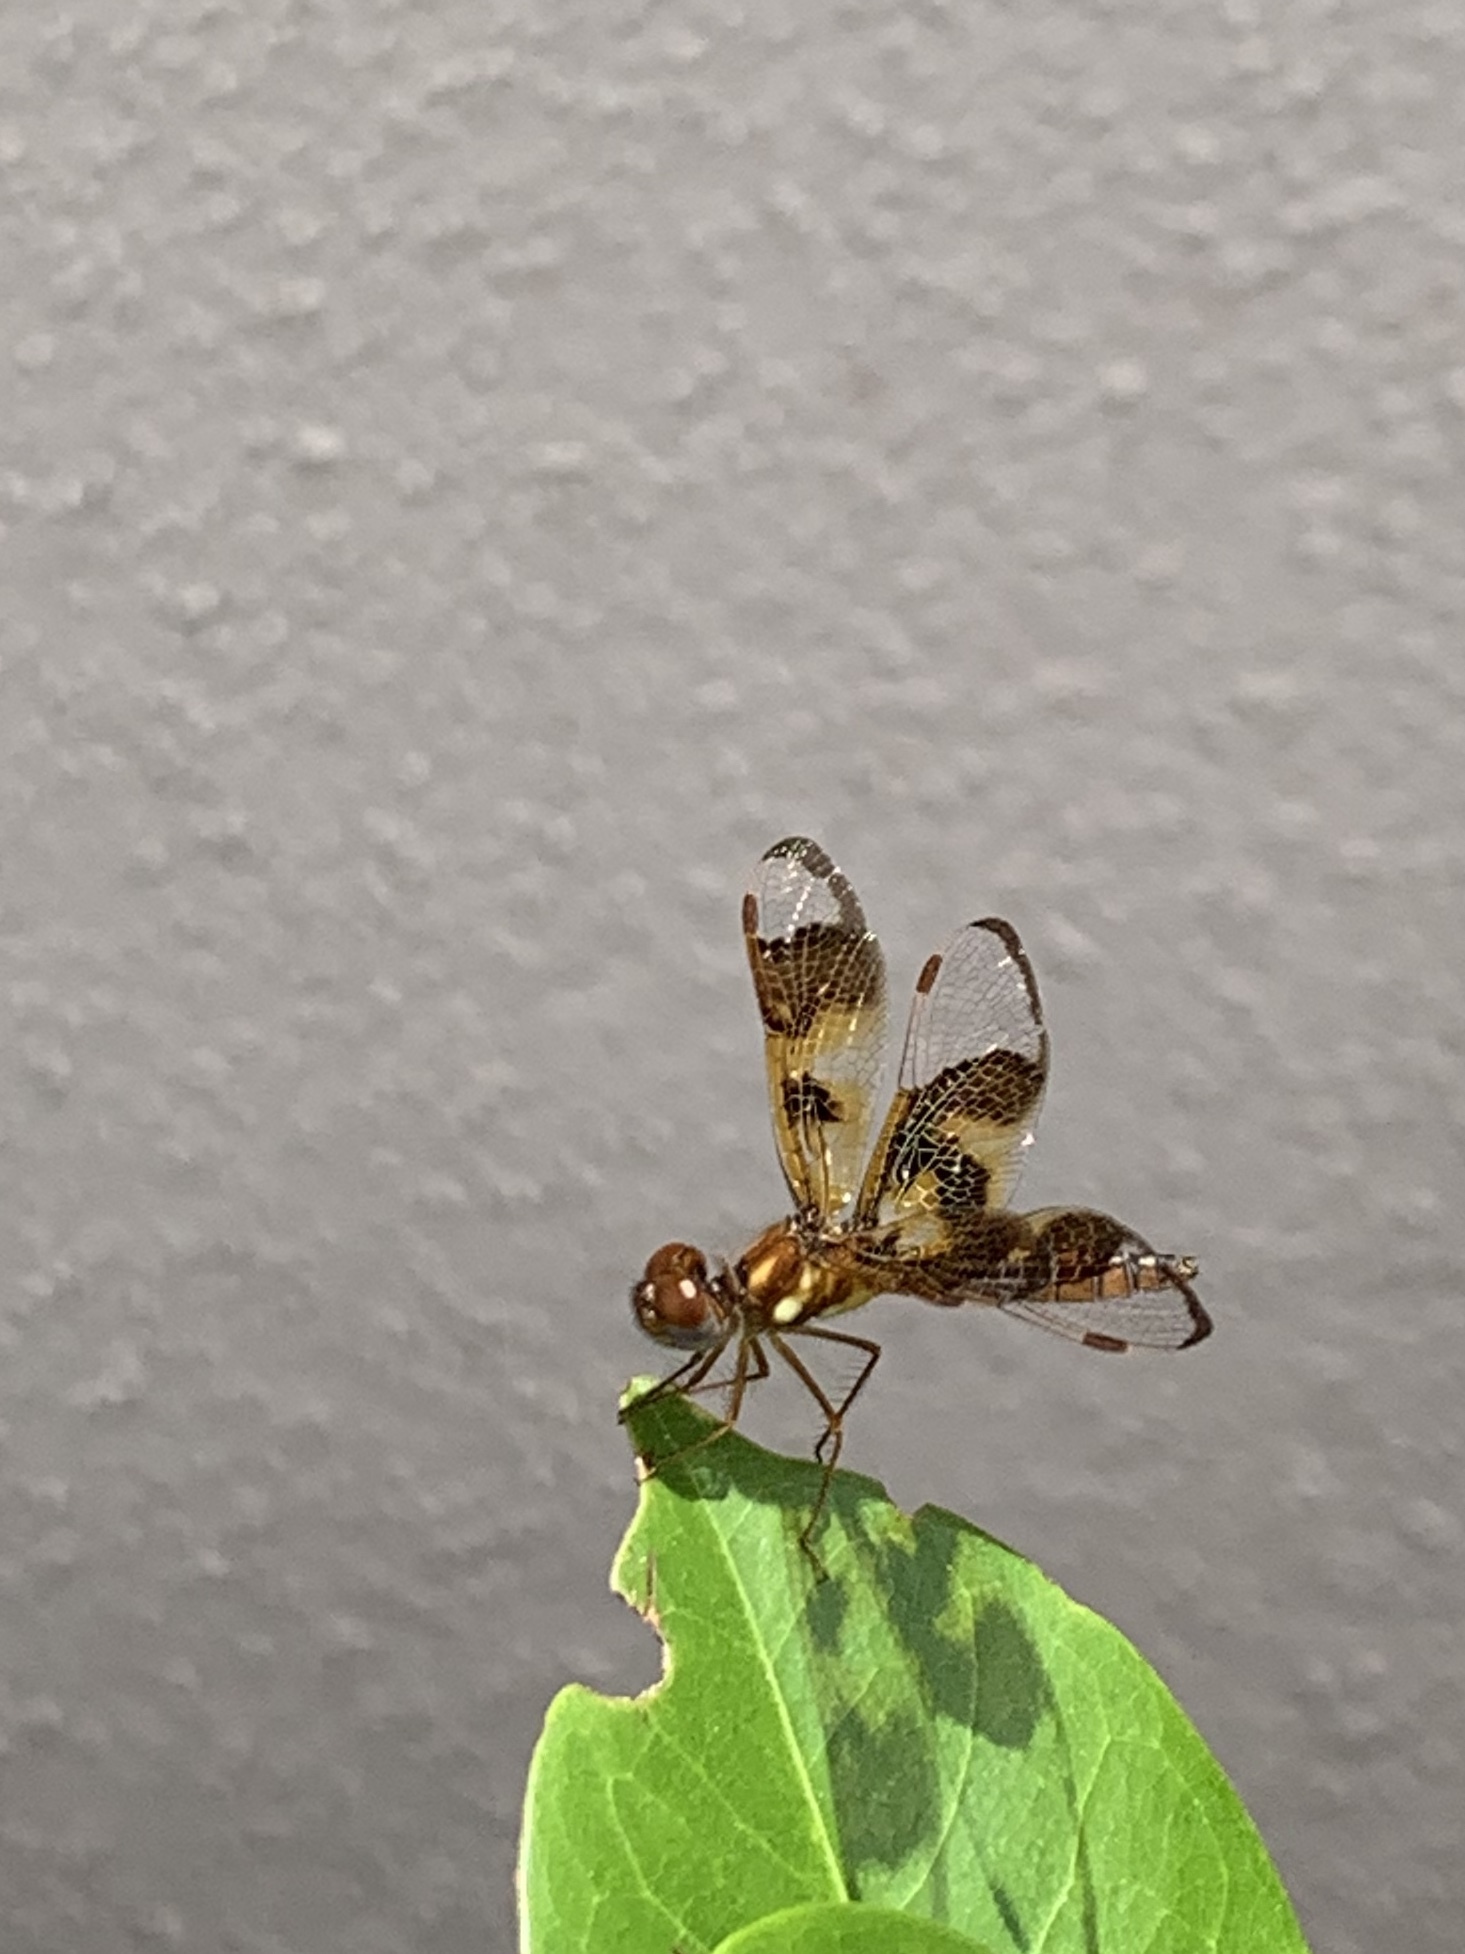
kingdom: Animalia
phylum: Arthropoda
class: Insecta
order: Odonata
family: Libellulidae
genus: Perithemis
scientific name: Perithemis tenera
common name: Eastern amberwing
